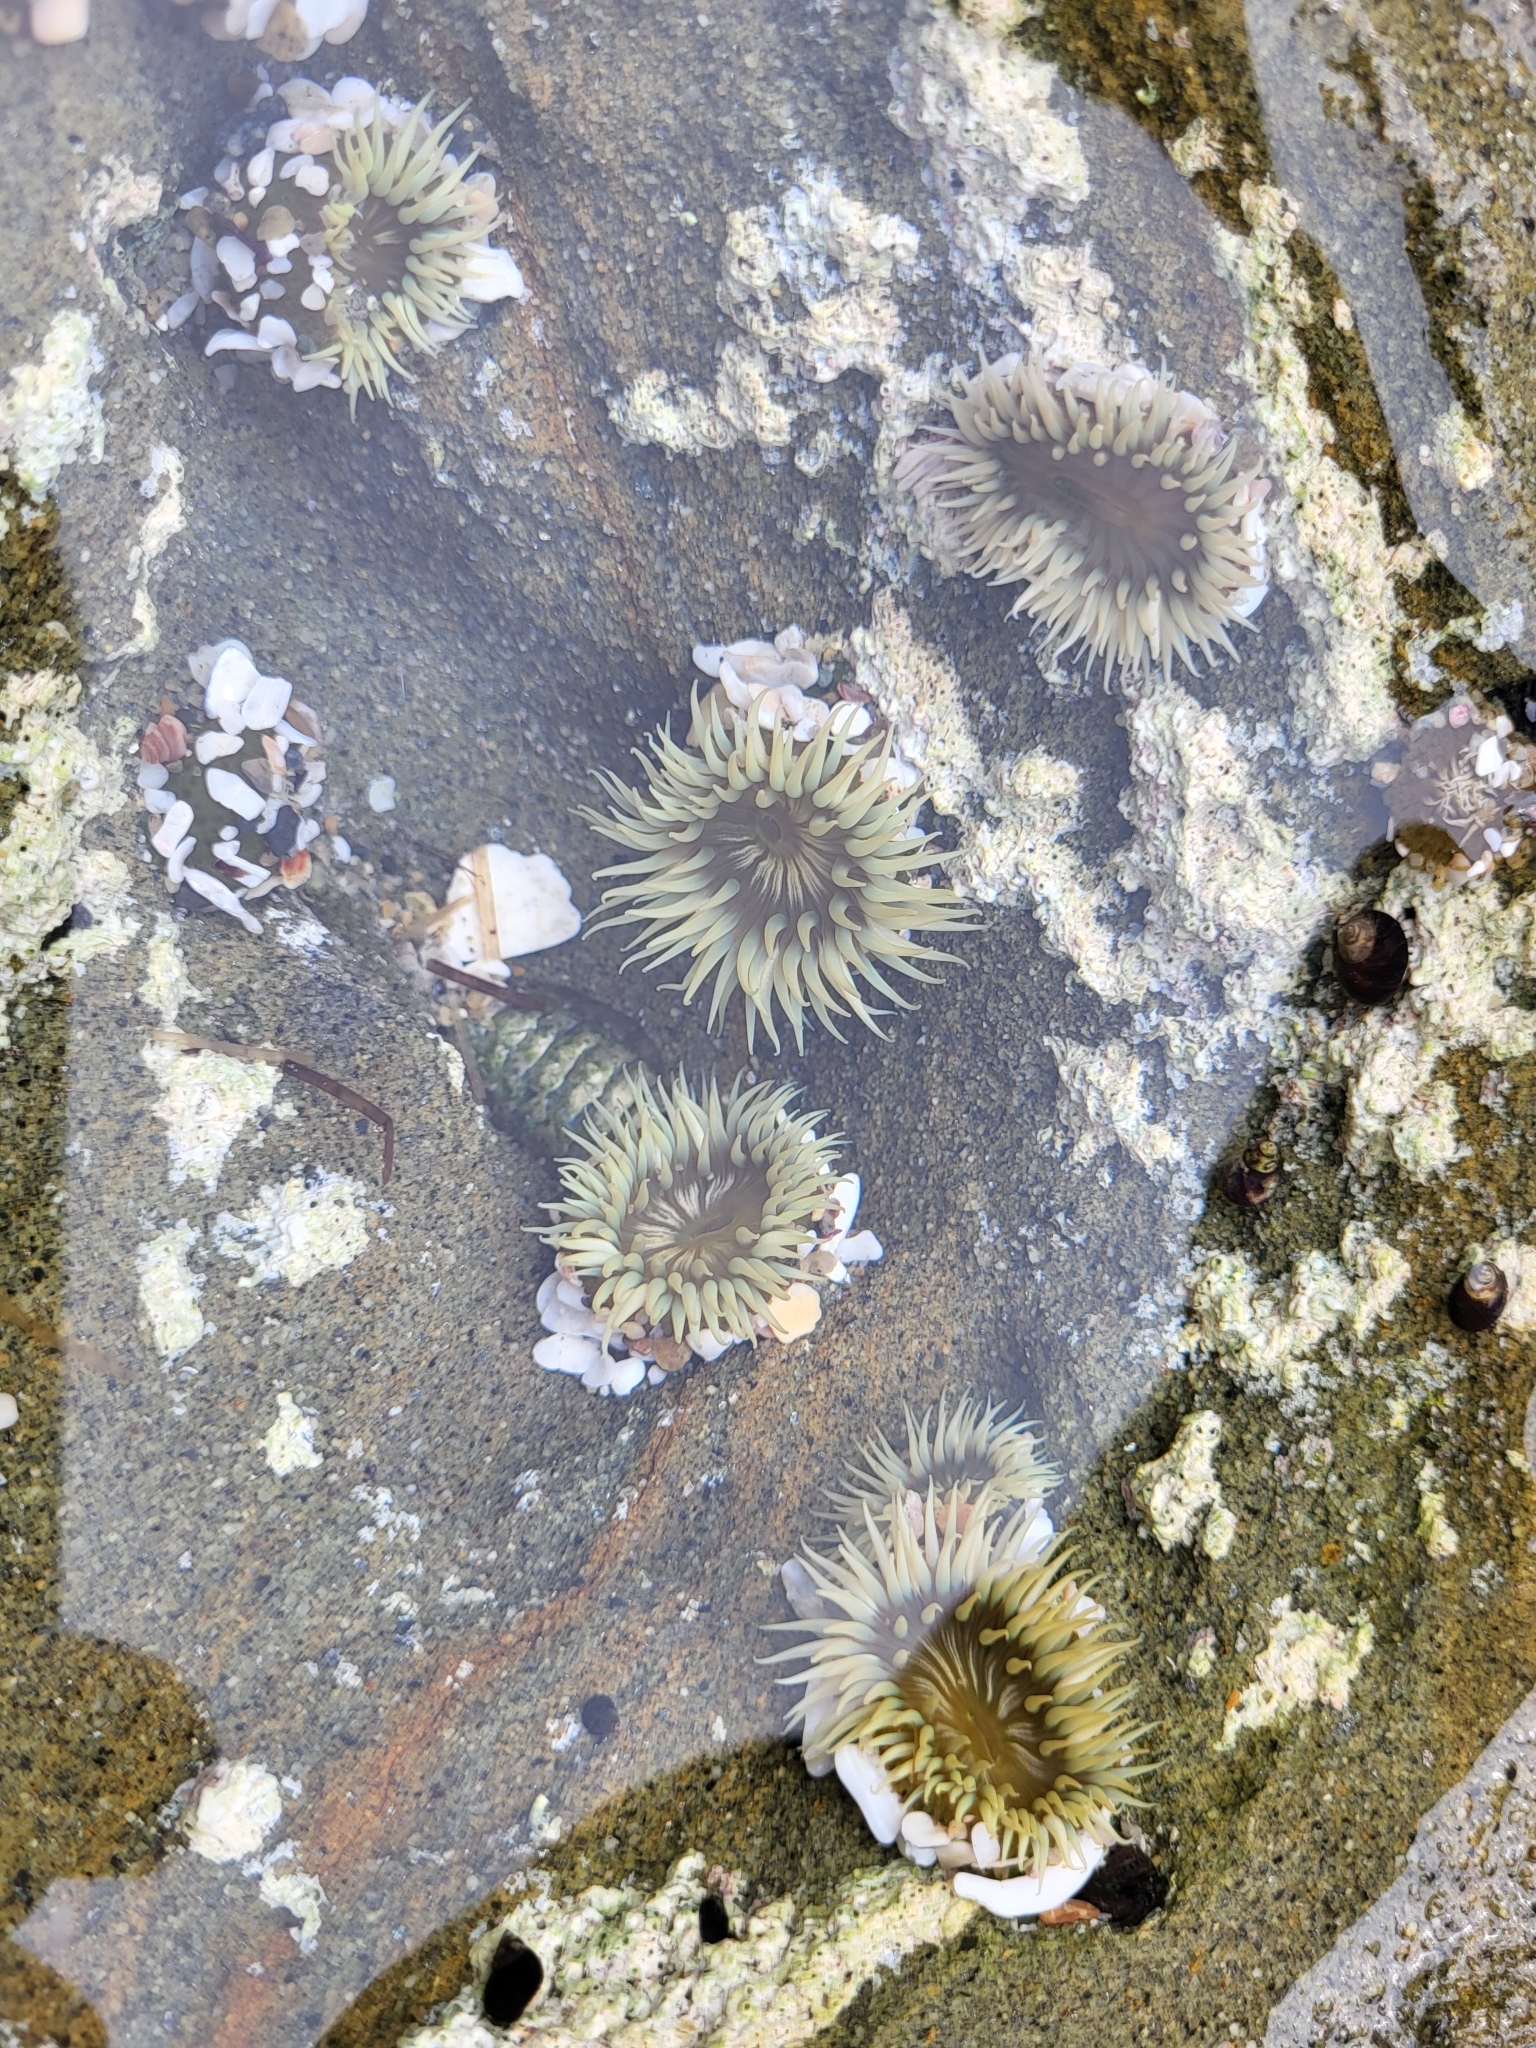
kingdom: Animalia
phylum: Cnidaria
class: Anthozoa
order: Actiniaria
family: Actiniidae
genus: Anthopleura
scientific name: Anthopleura elegantissima
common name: Clonal anemone
